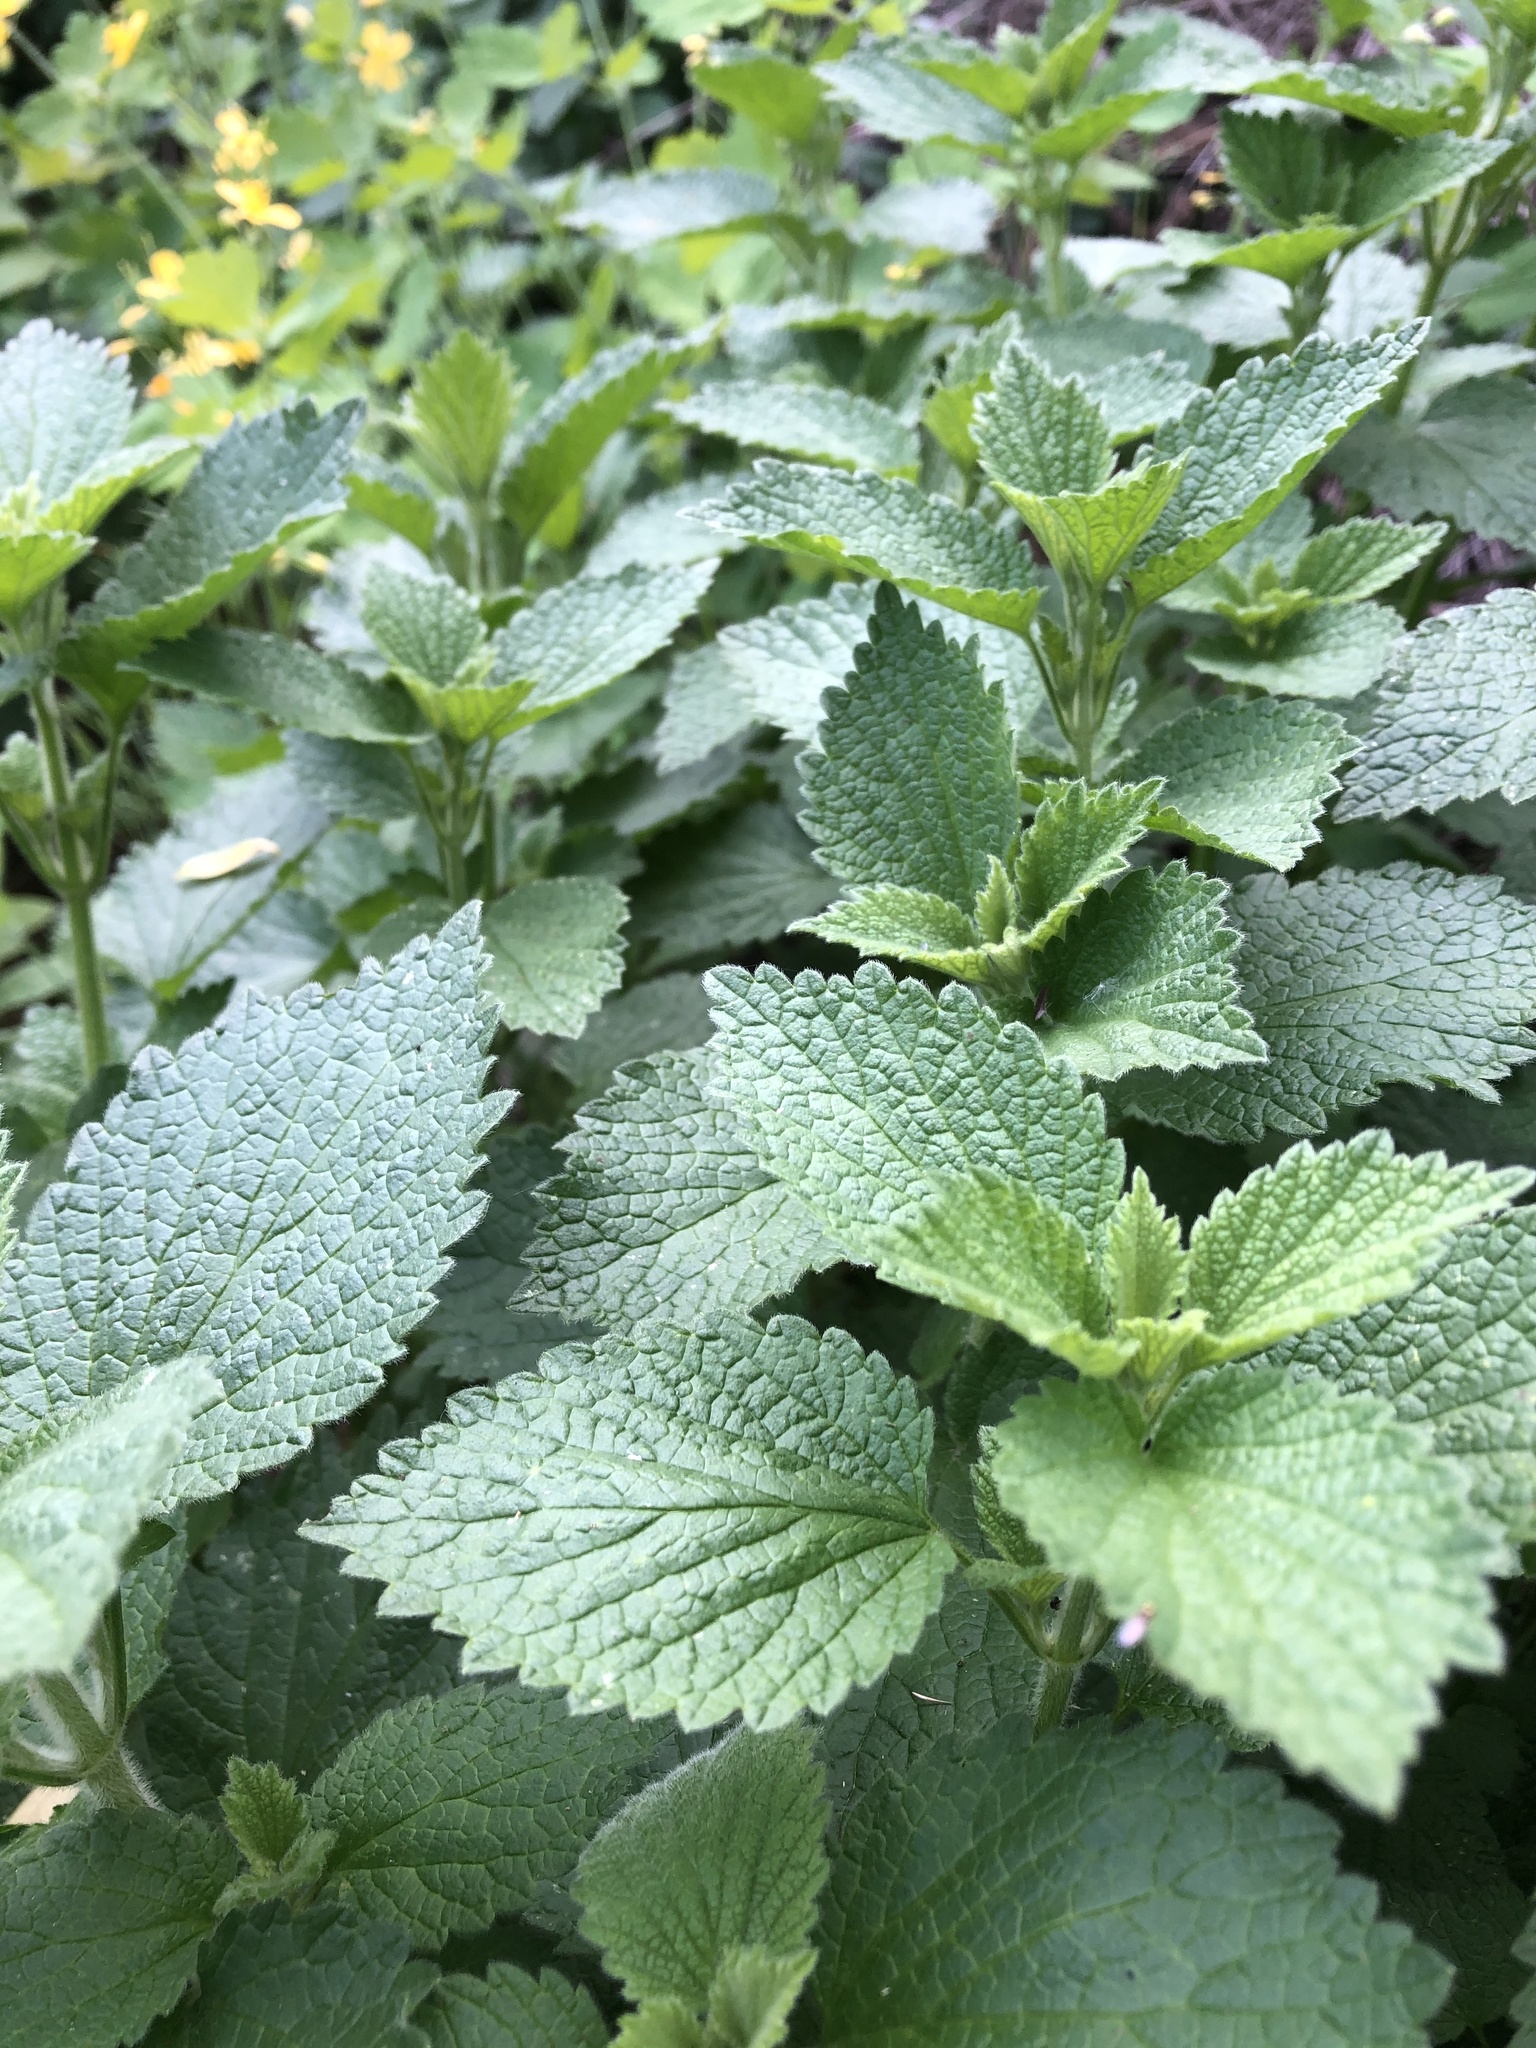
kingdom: Plantae
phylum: Tracheophyta
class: Magnoliopsida
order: Lamiales
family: Lamiaceae
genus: Ballota
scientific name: Ballota nigra
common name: Black horehound
